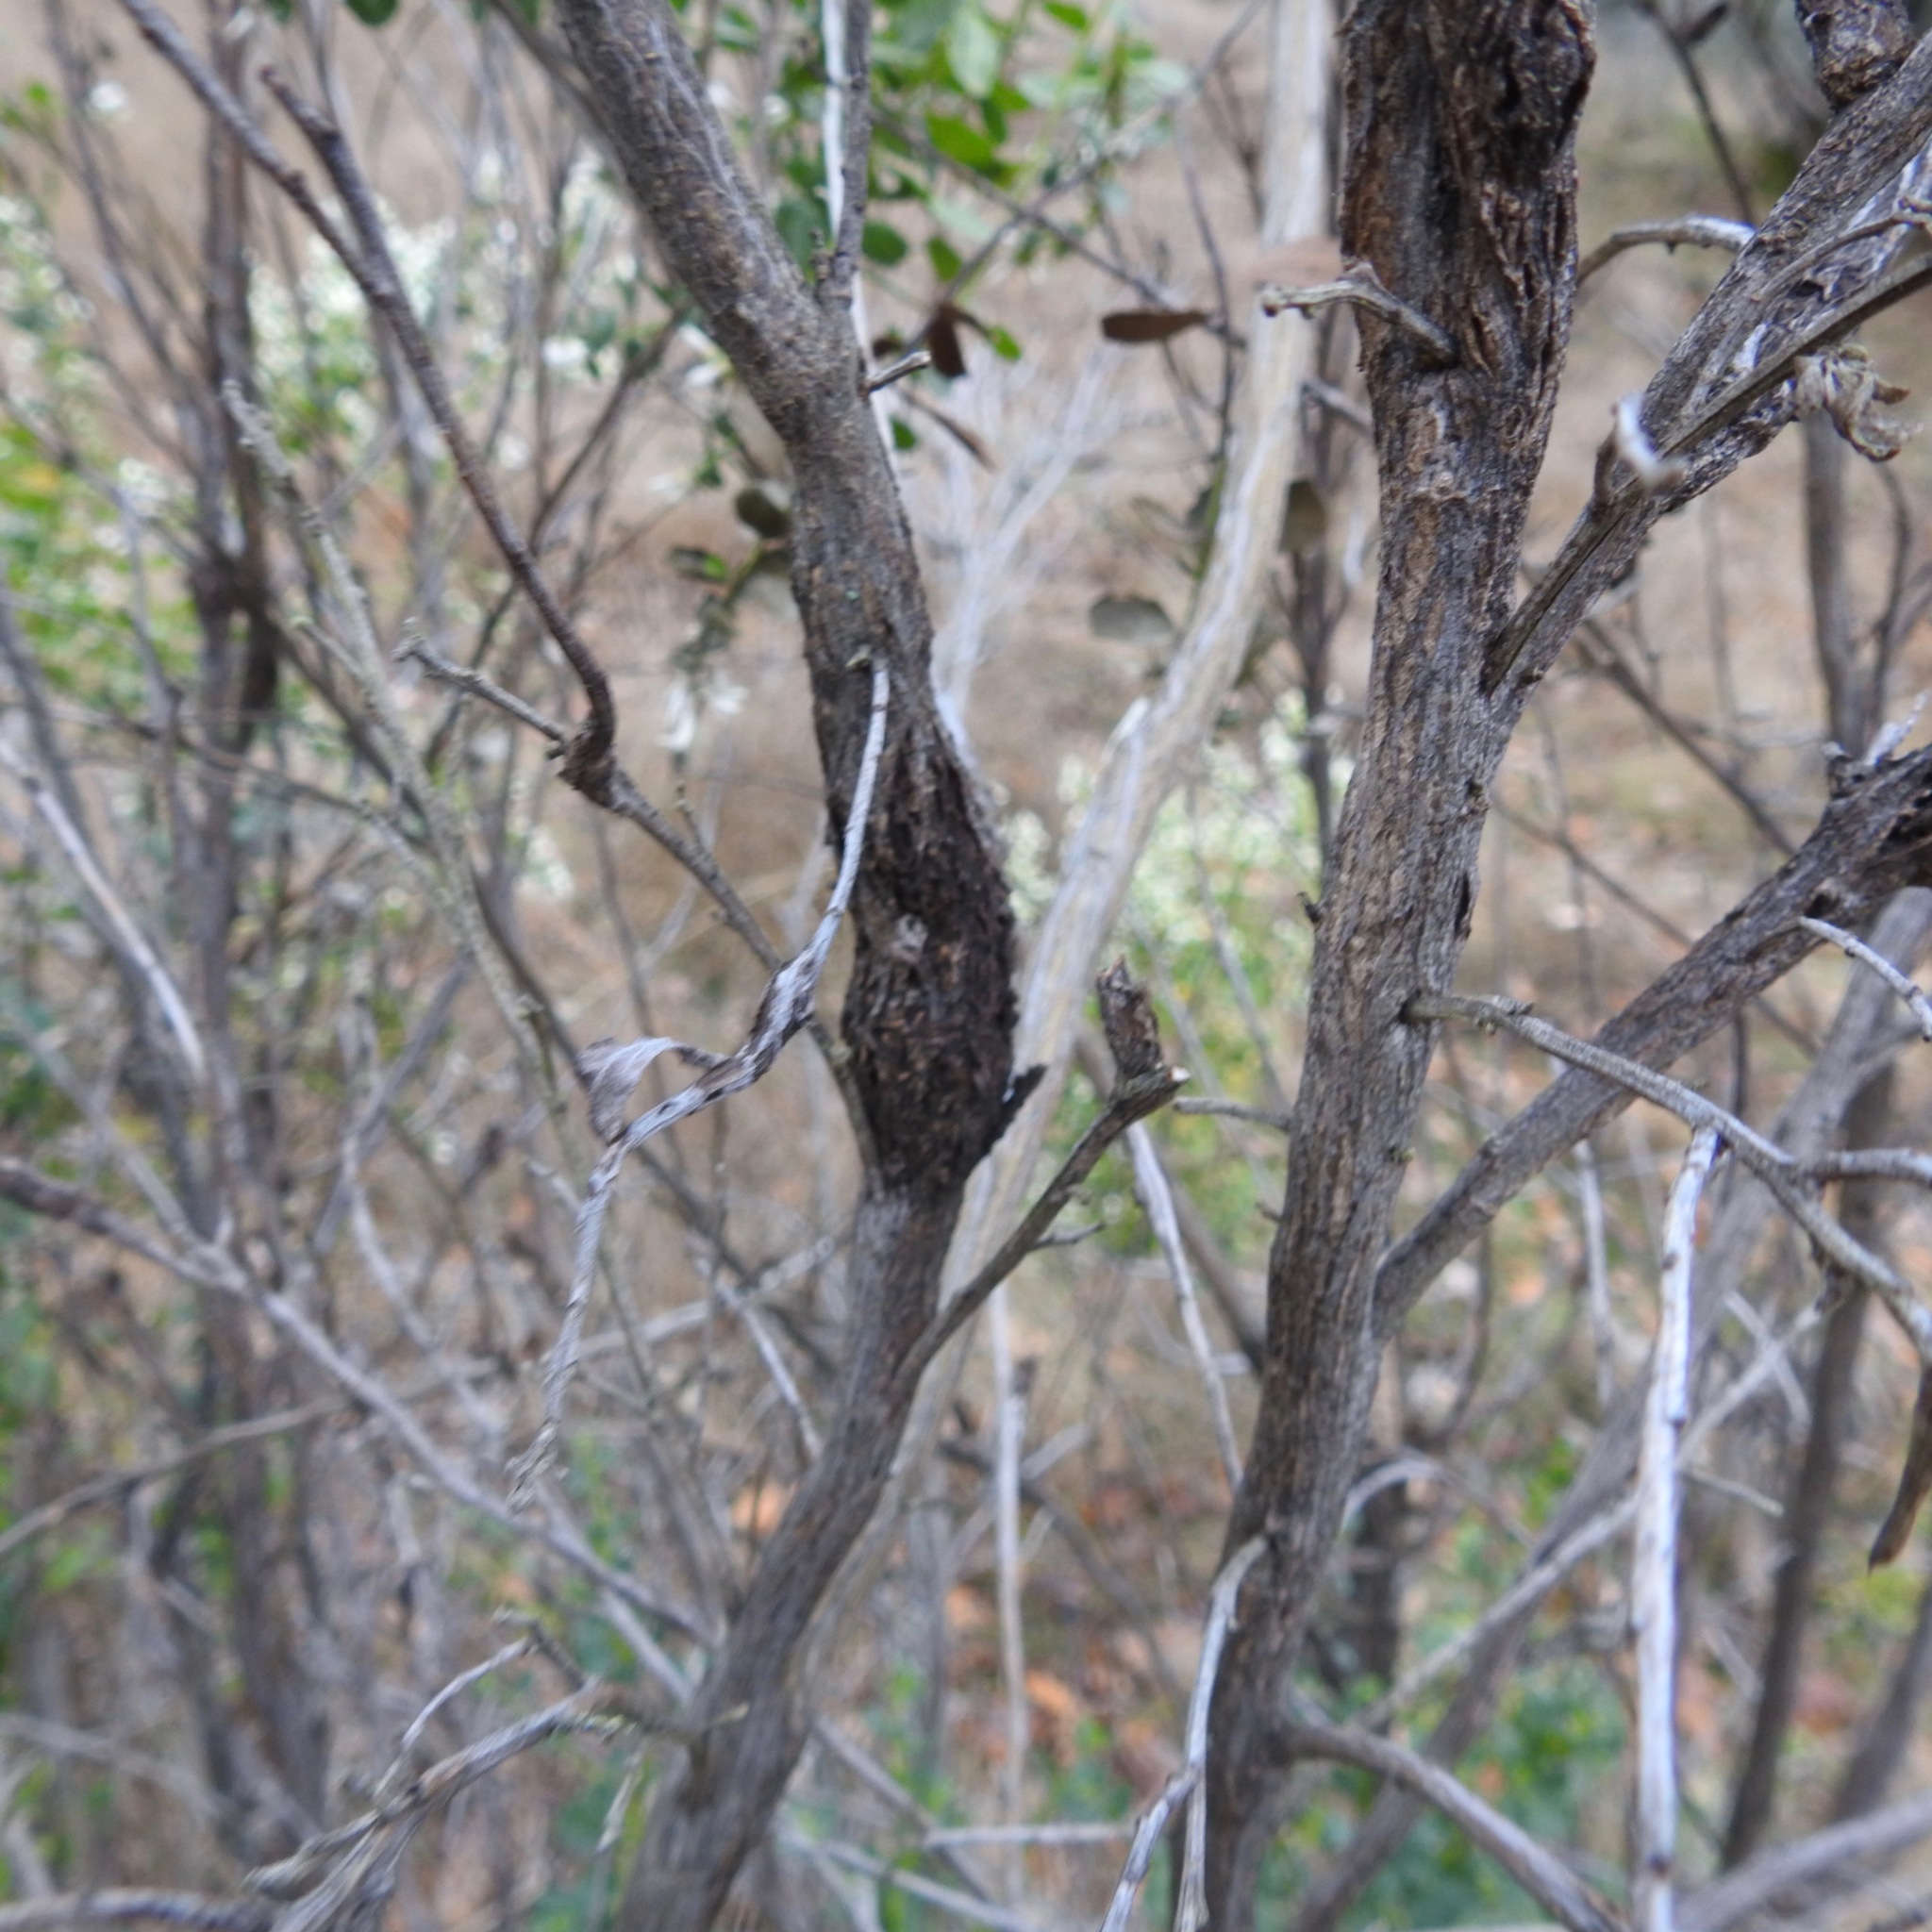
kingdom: Plantae
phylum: Tracheophyta
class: Magnoliopsida
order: Asterales
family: Asteraceae
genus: Baccharis
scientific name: Baccharis pilularis
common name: Coyotebrush
